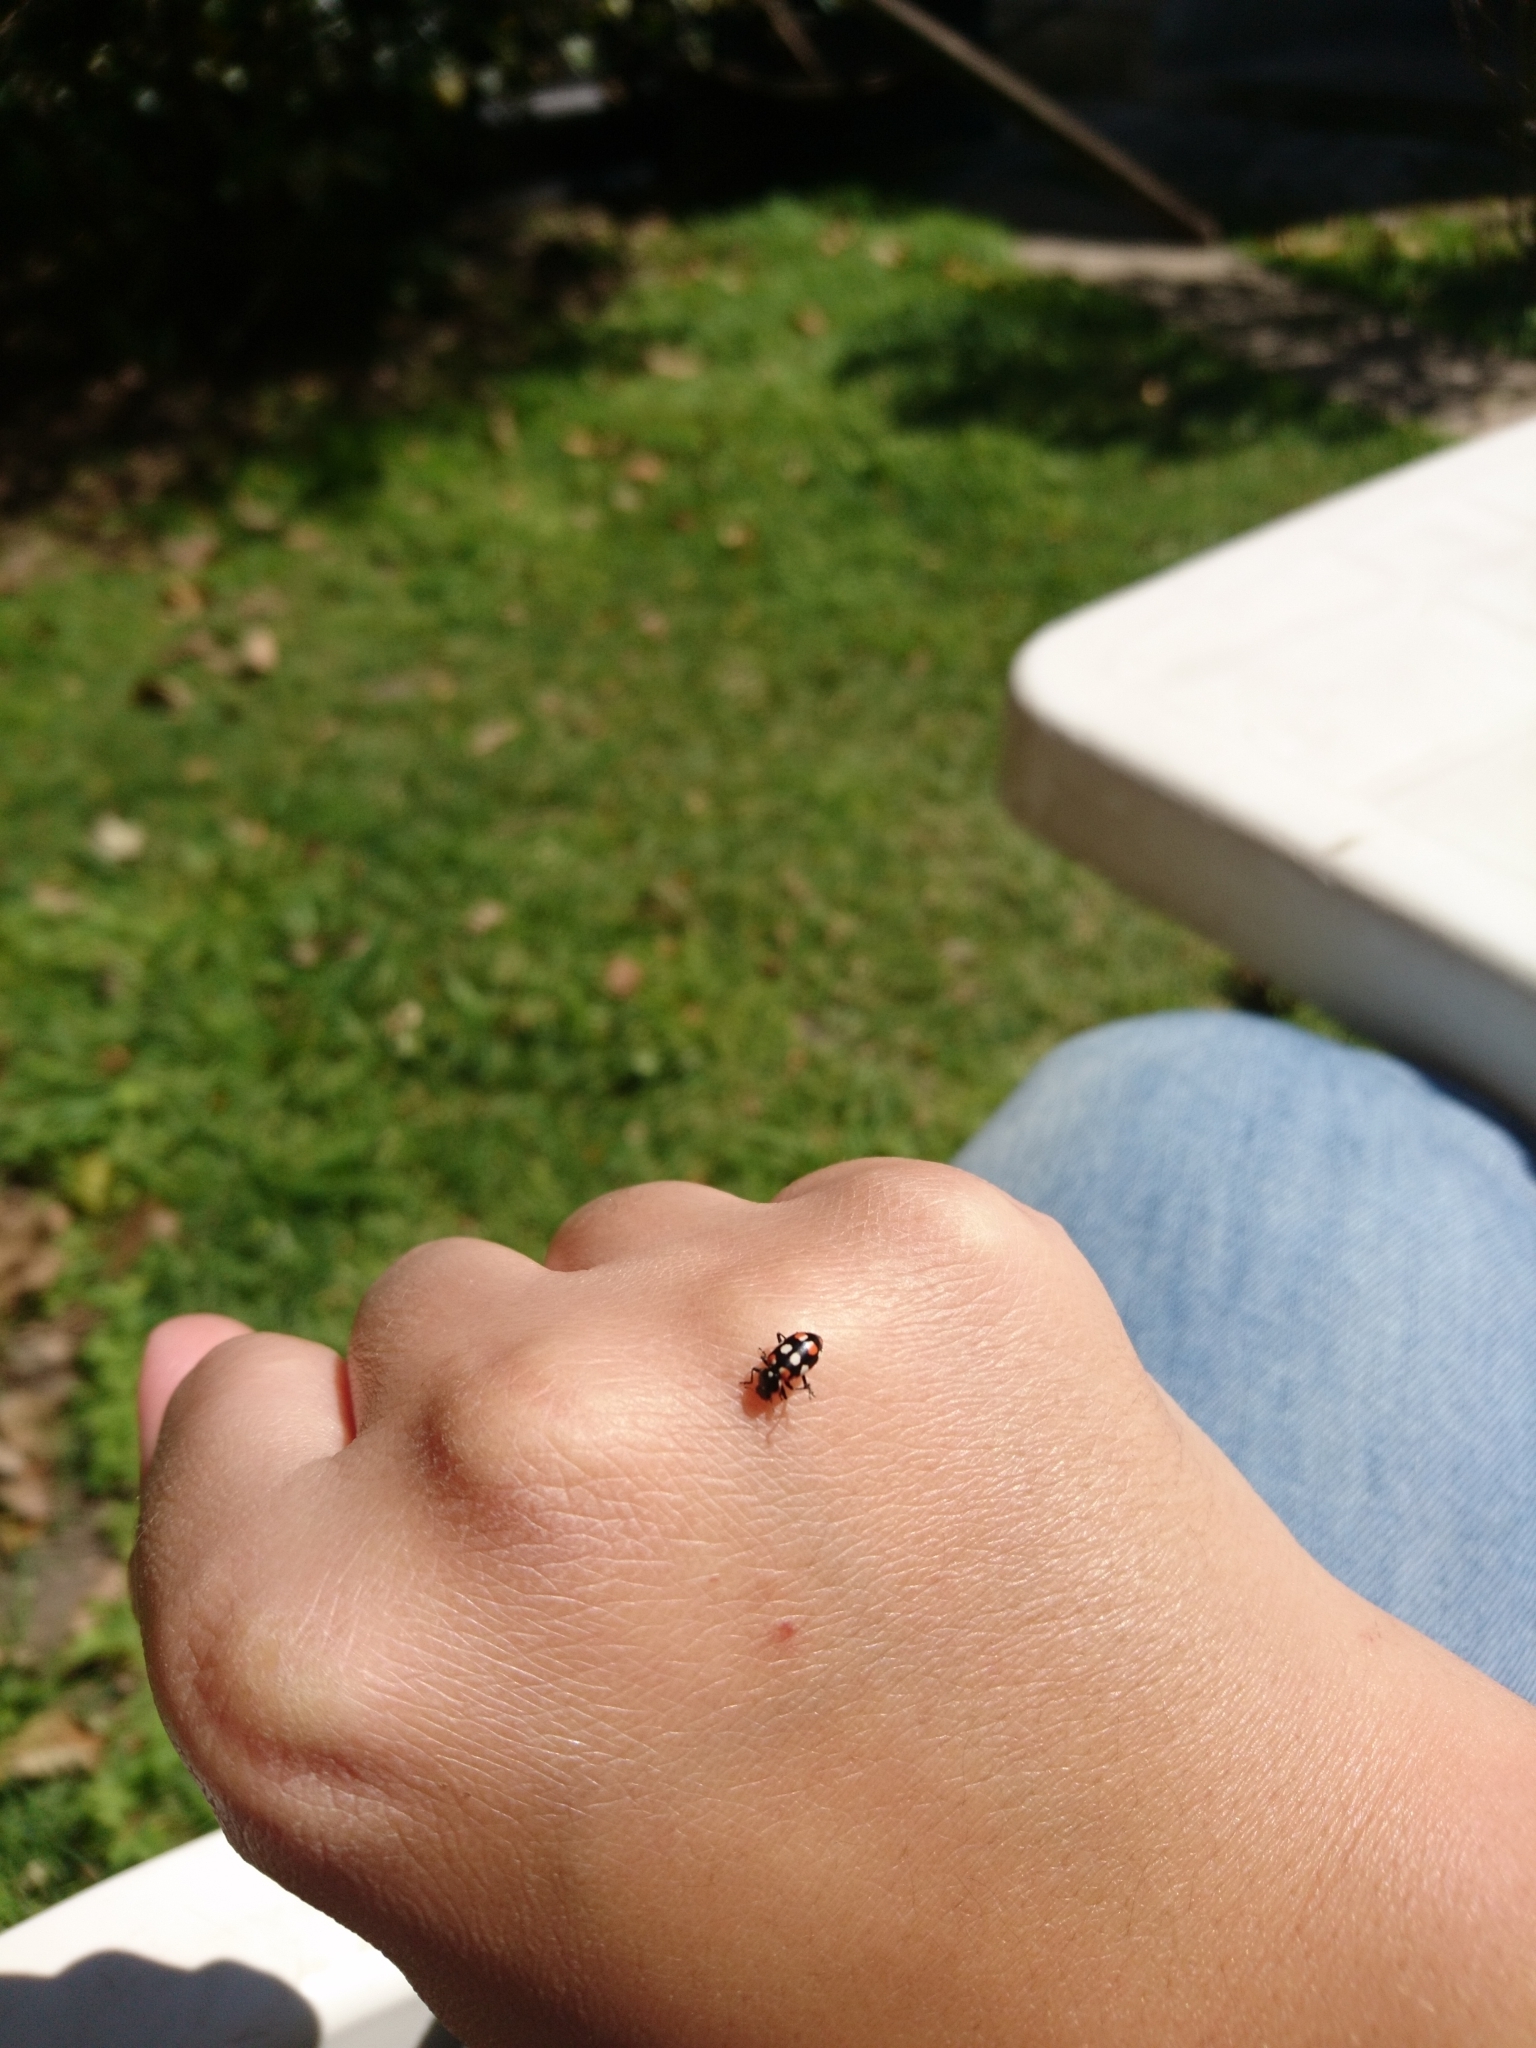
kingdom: Animalia
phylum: Arthropoda
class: Insecta
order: Coleoptera
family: Coccinellidae
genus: Eriopis
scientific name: Eriopis connexa
